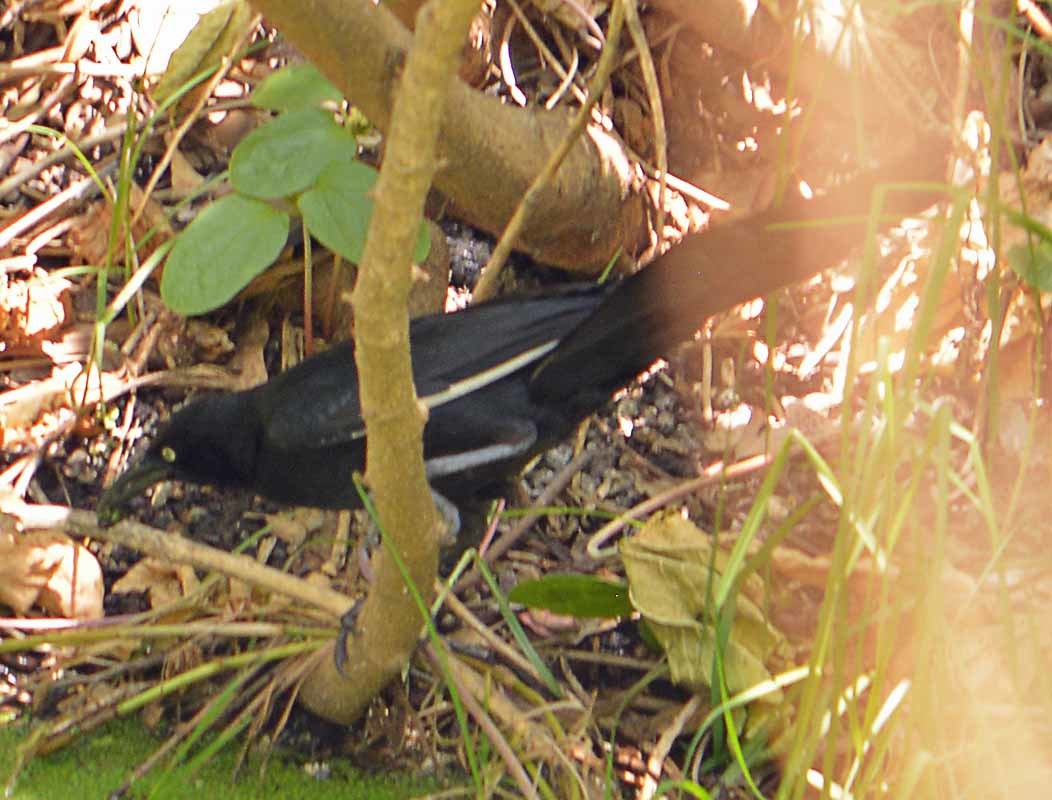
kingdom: Animalia
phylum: Chordata
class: Aves
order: Passeriformes
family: Icteridae
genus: Quiscalus
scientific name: Quiscalus mexicanus
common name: Great-tailed grackle
